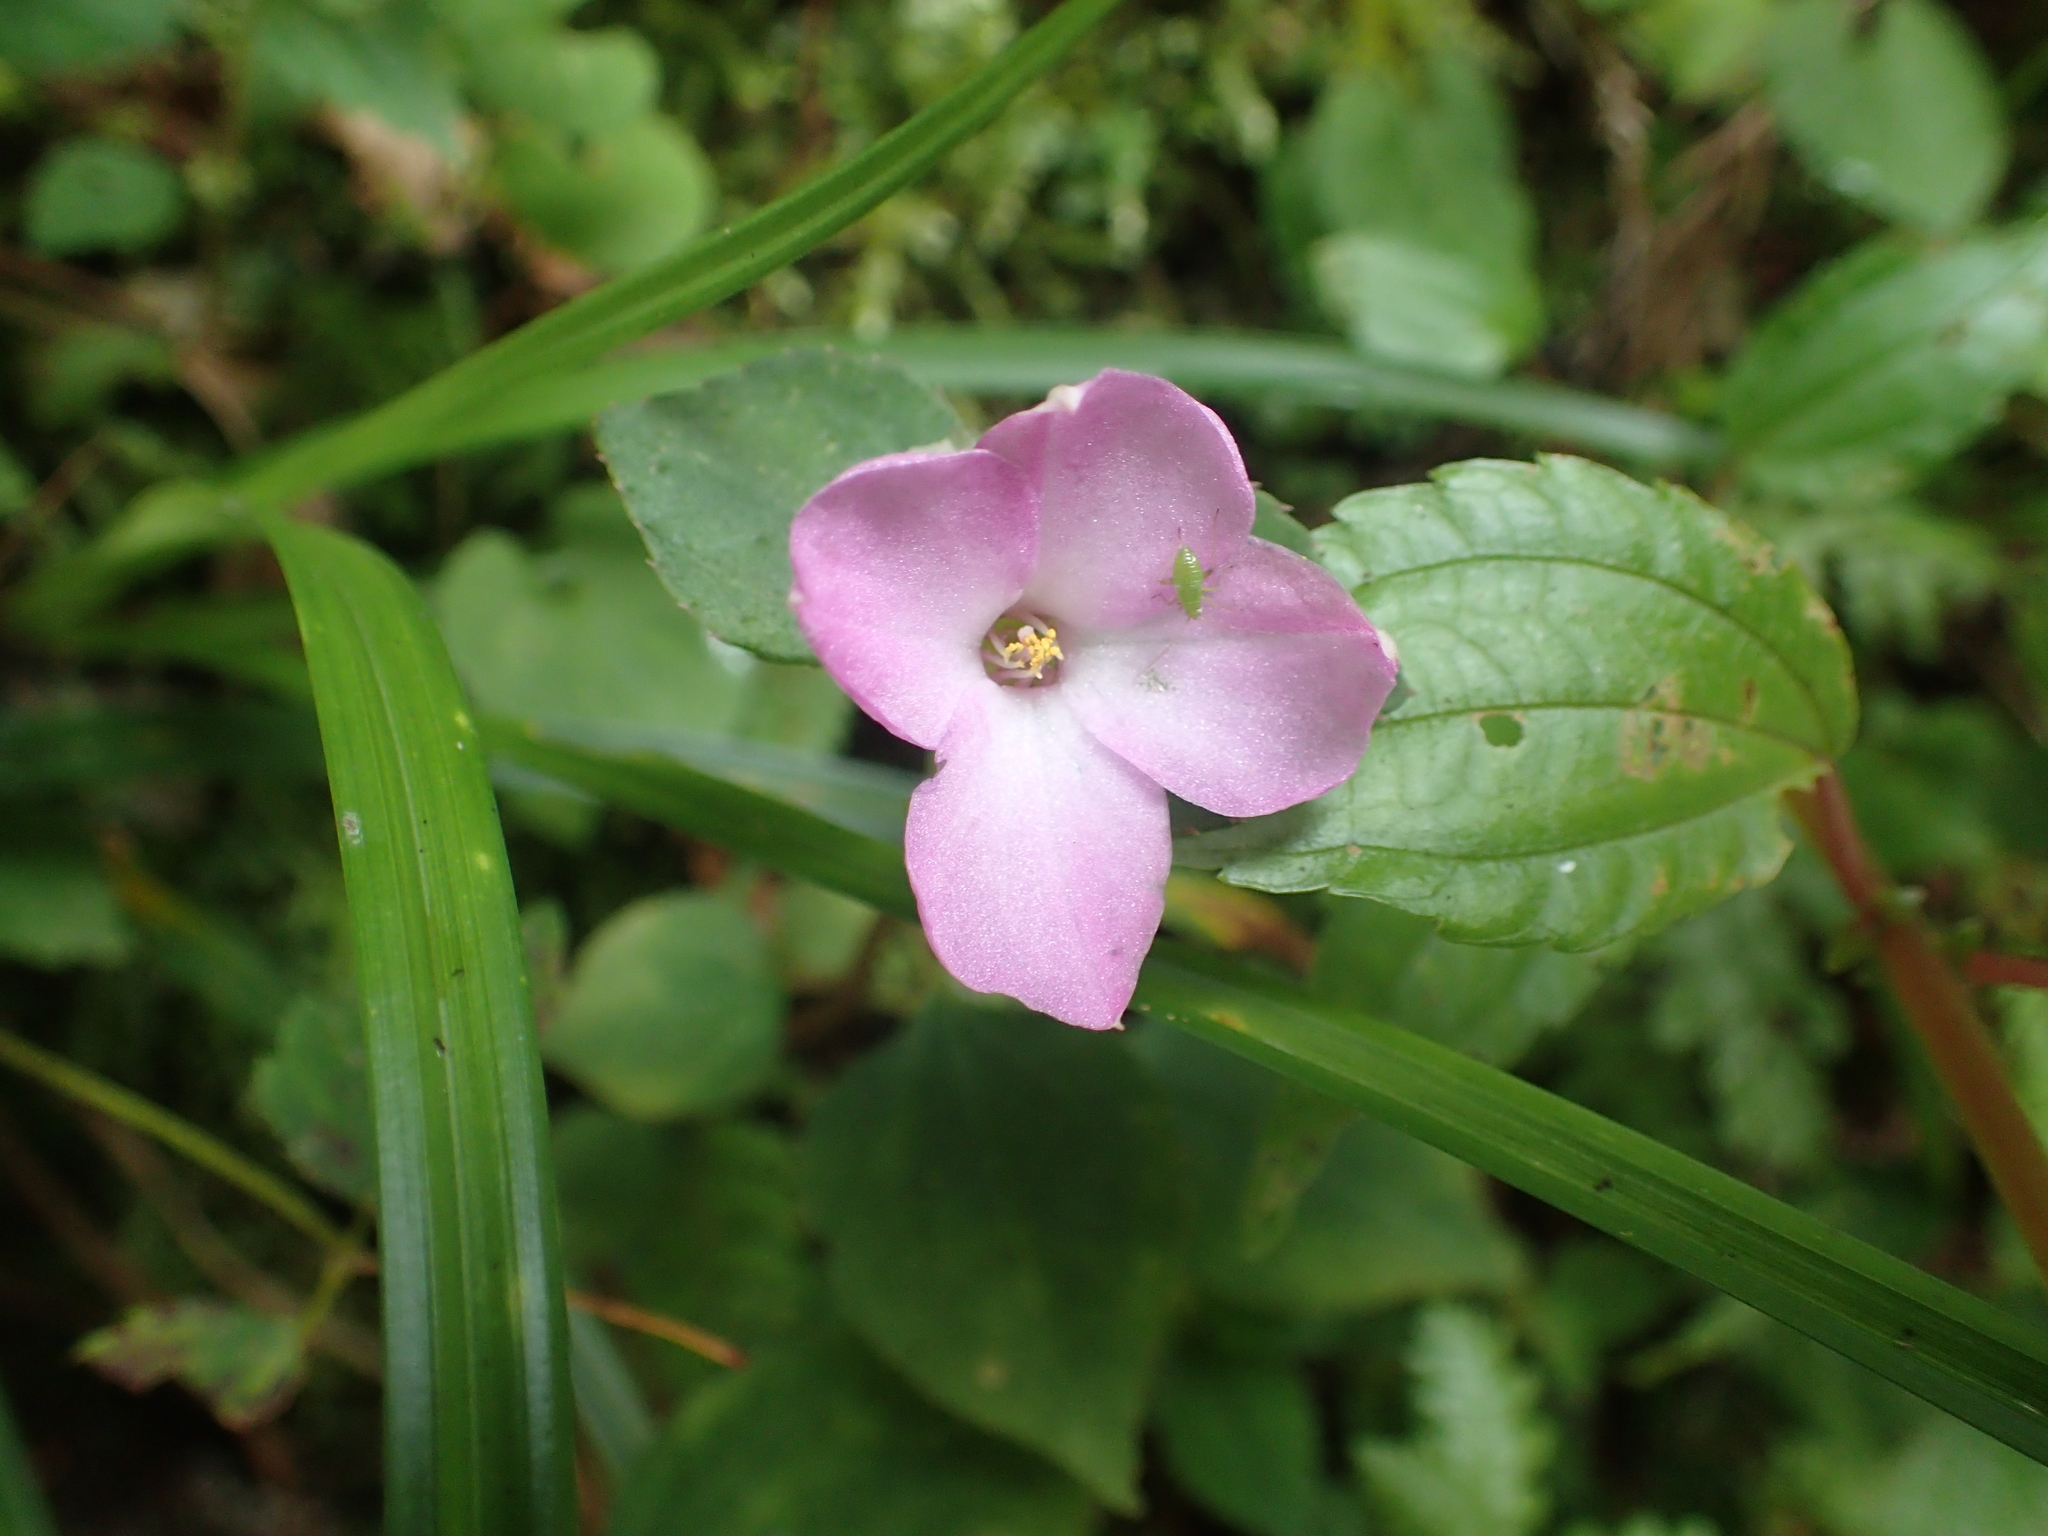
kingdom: Plantae
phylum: Tracheophyta
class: Magnoliopsida
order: Myrtales
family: Melastomataceae
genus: Sarcopyramis
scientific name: Sarcopyramis bodinieri
